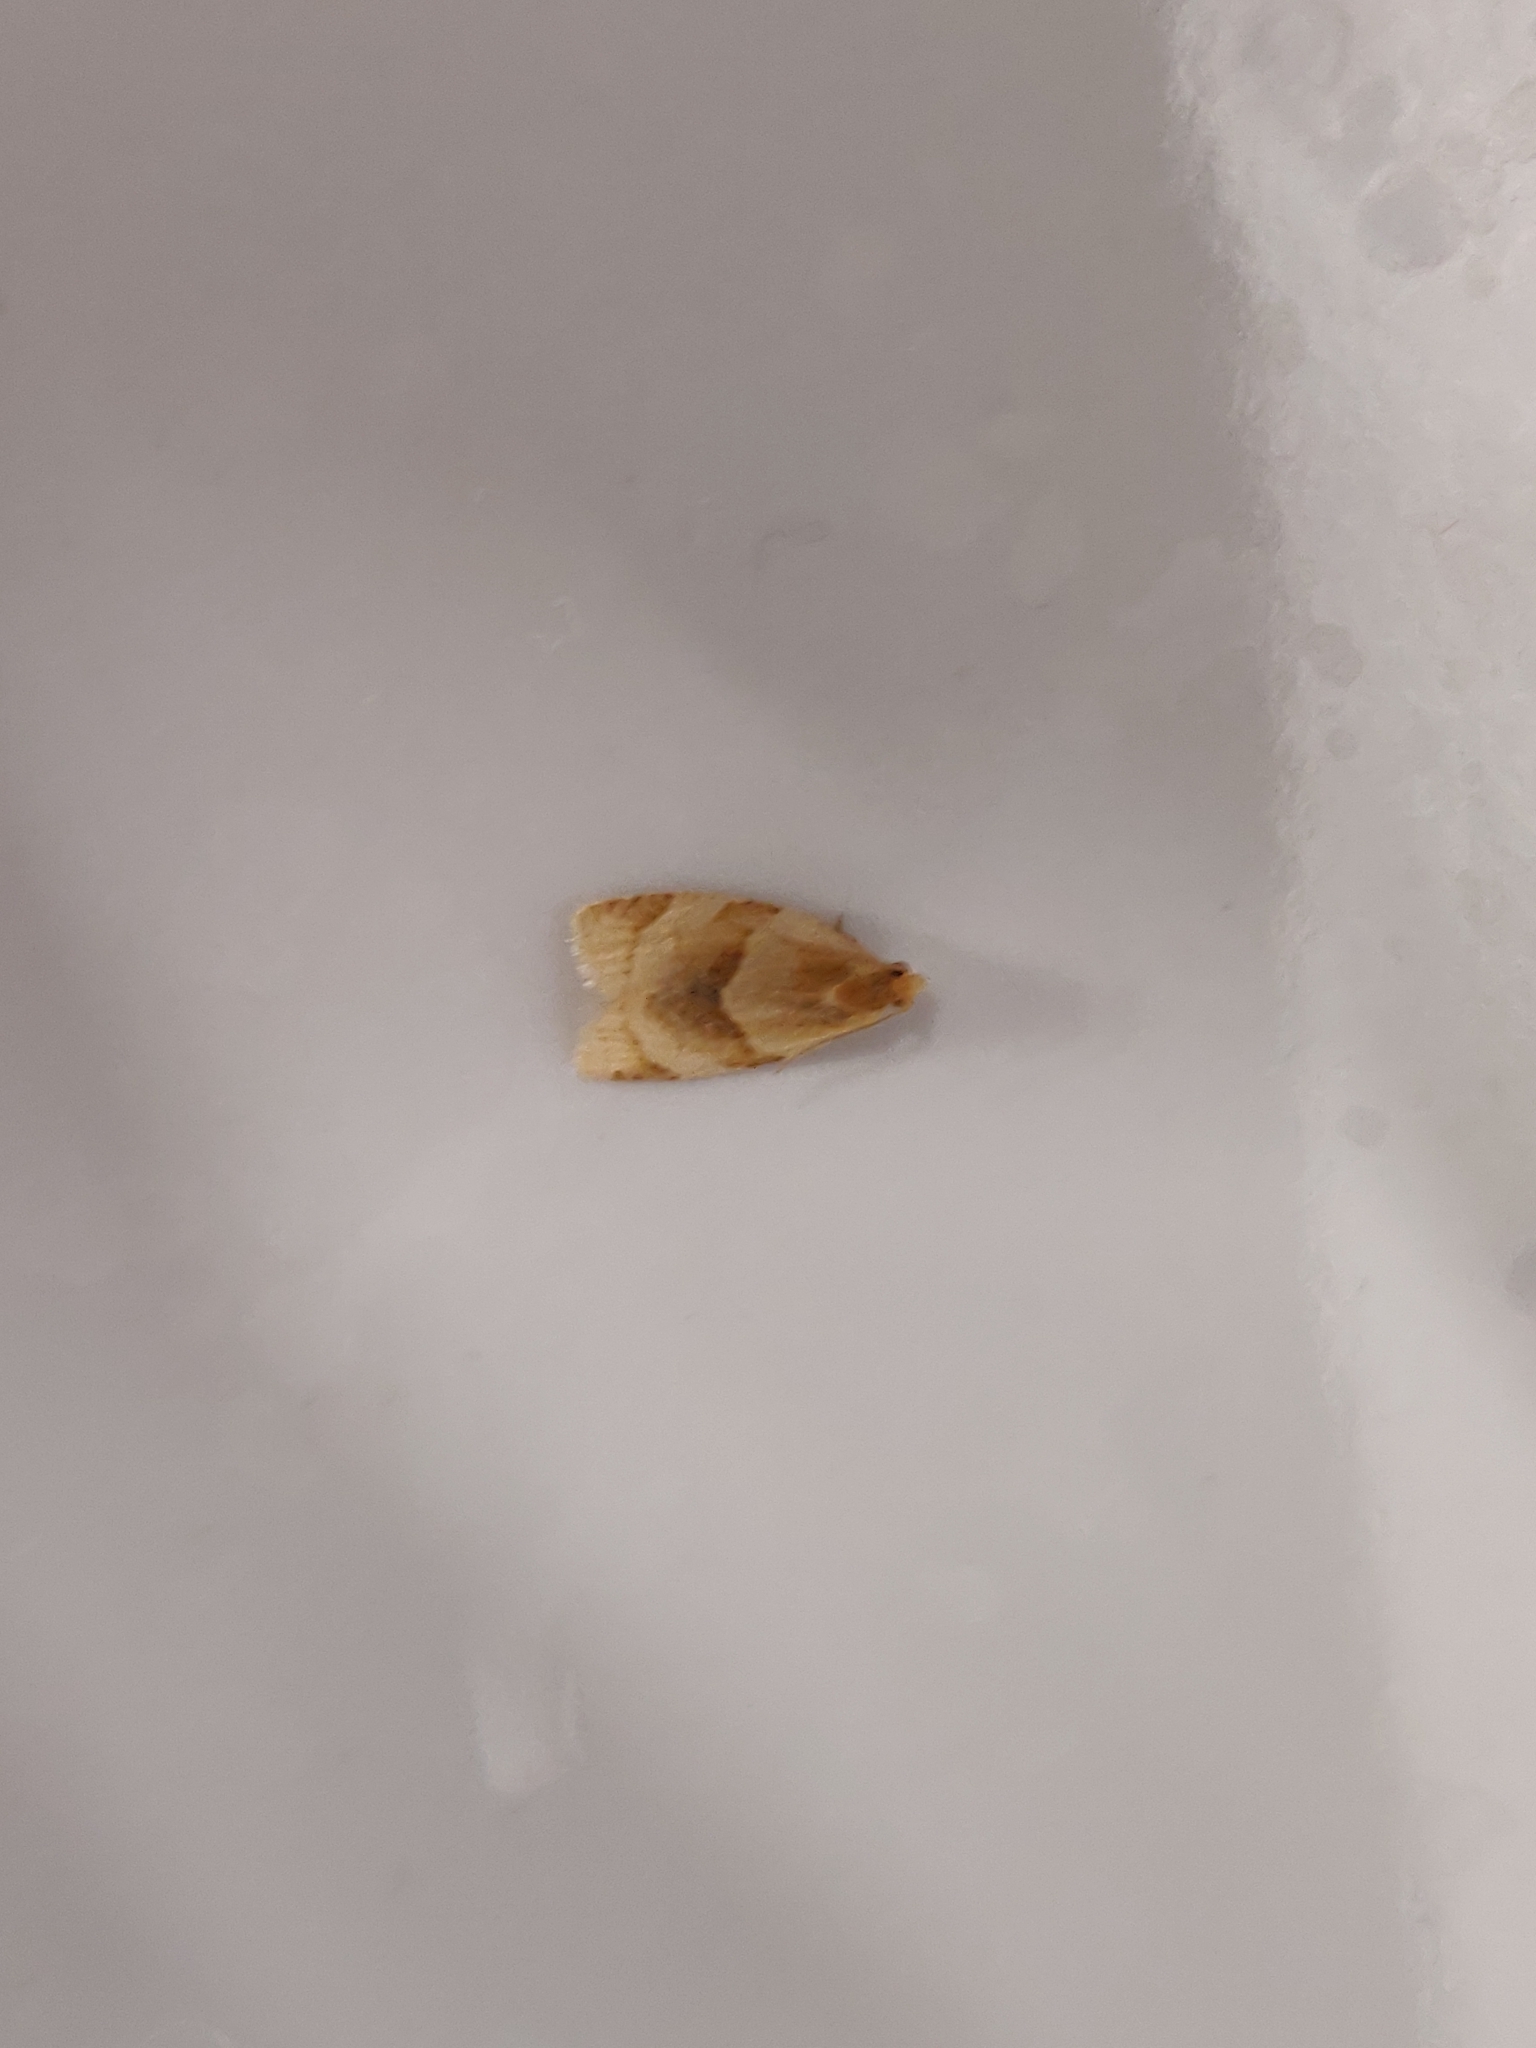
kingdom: Animalia
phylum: Arthropoda
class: Insecta
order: Lepidoptera
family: Tortricidae
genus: Clepsis
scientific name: Clepsis rurinana
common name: Pale twist
